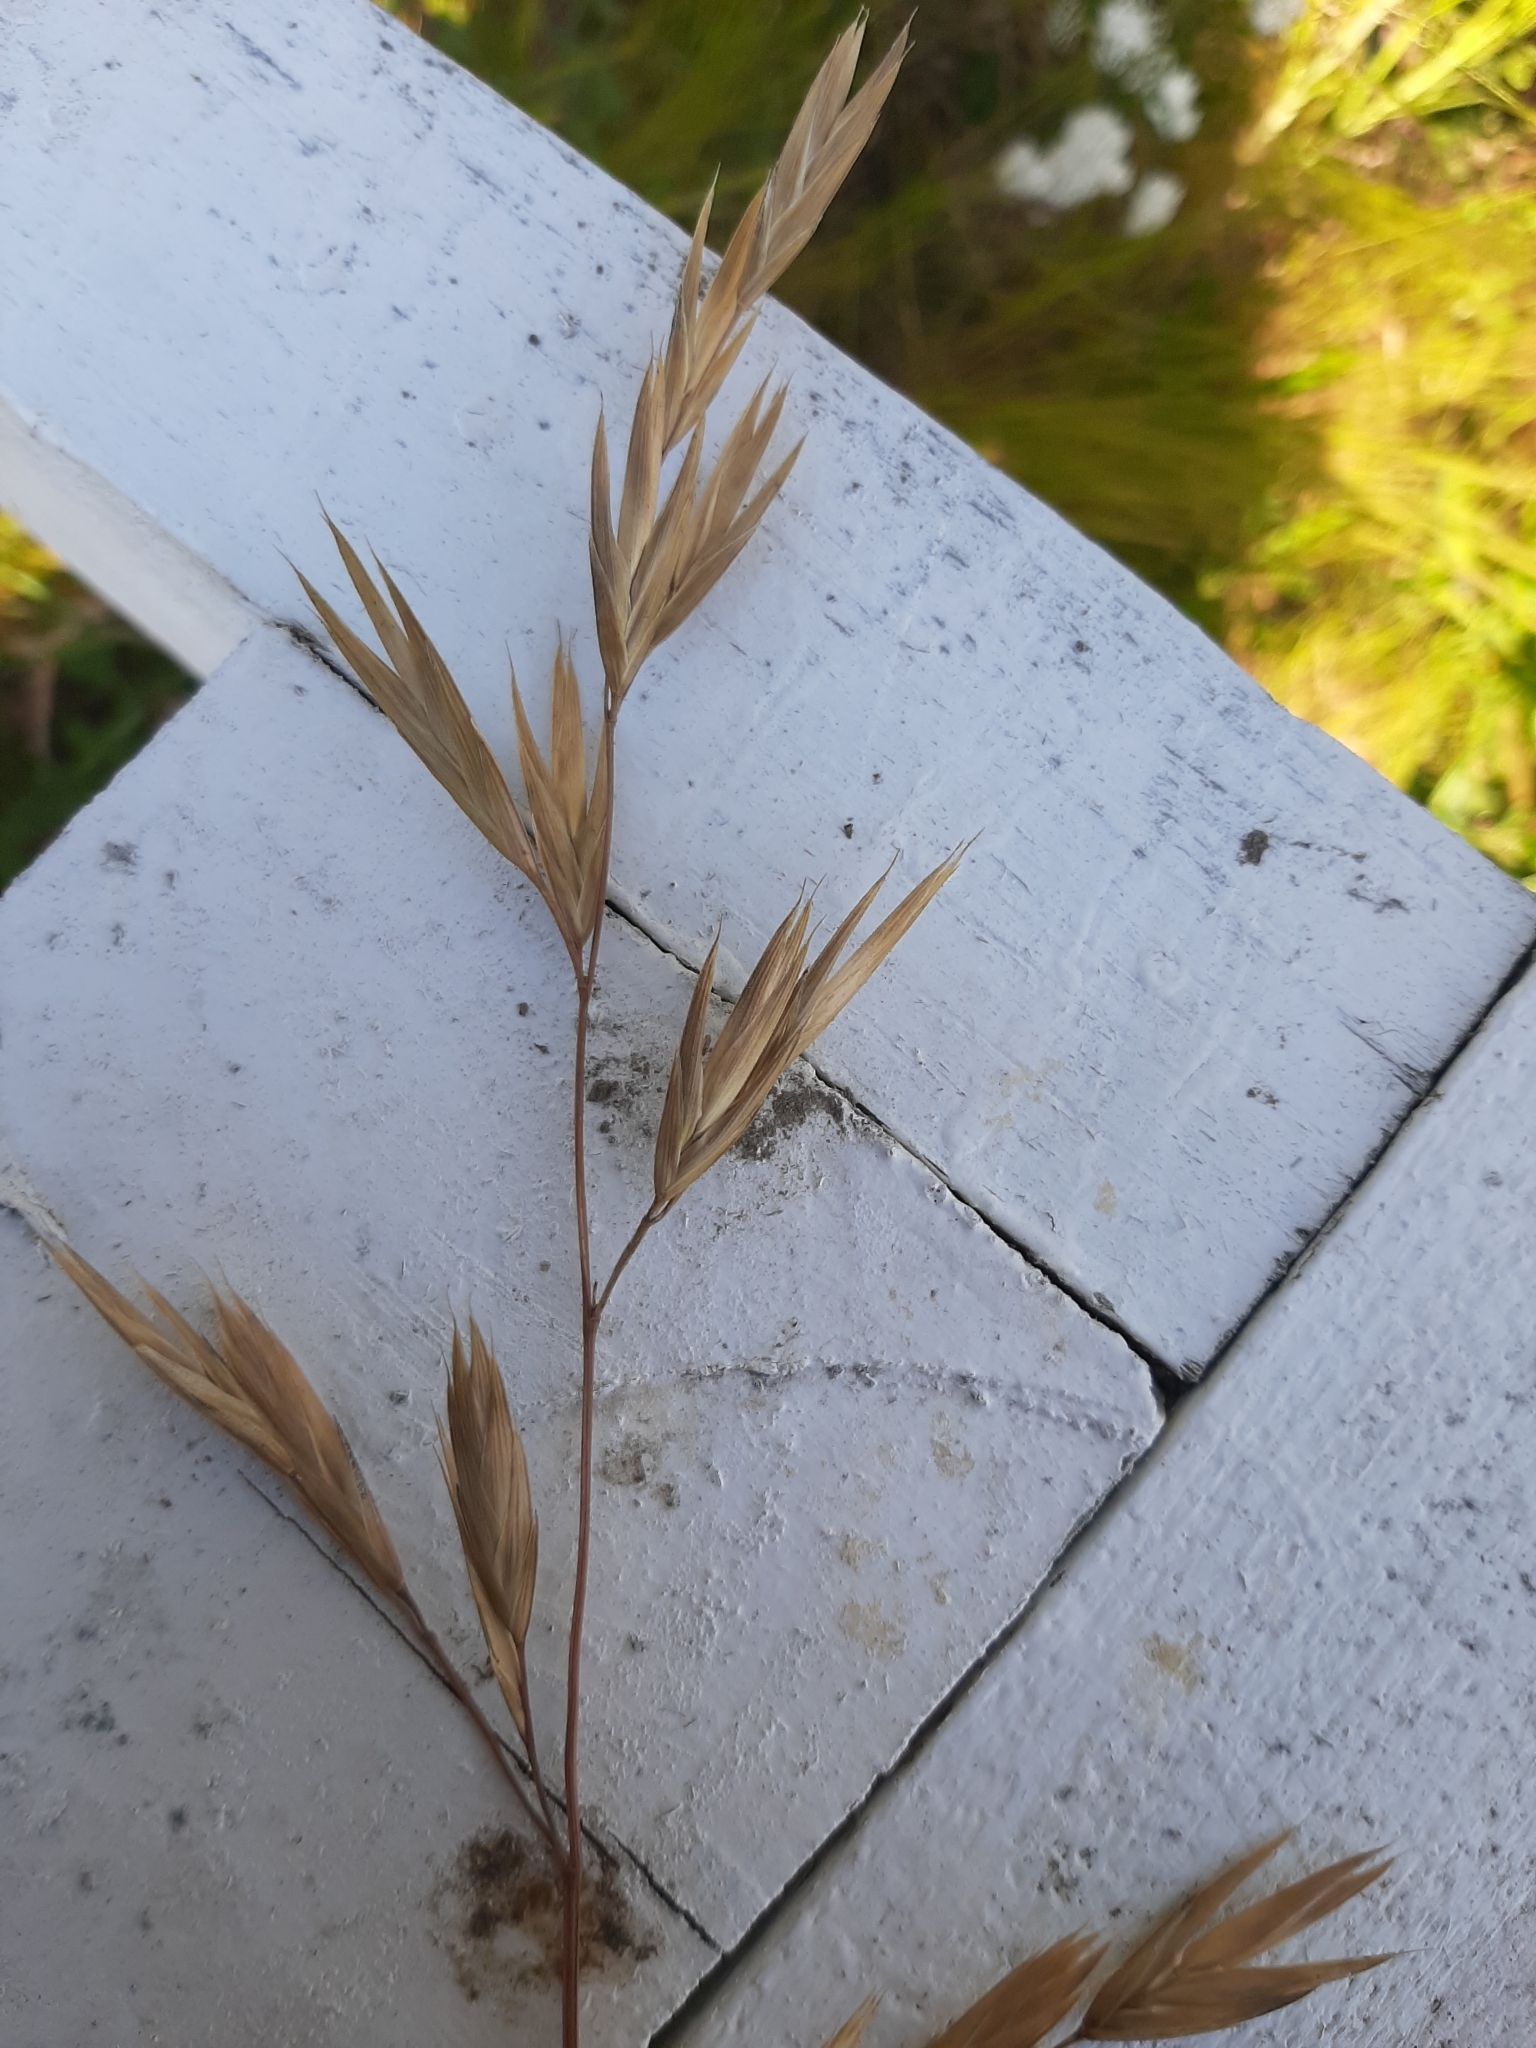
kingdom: Plantae
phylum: Tracheophyta
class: Liliopsida
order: Poales
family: Poaceae
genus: Bromus
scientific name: Bromus catharticus
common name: Rescuegrass
